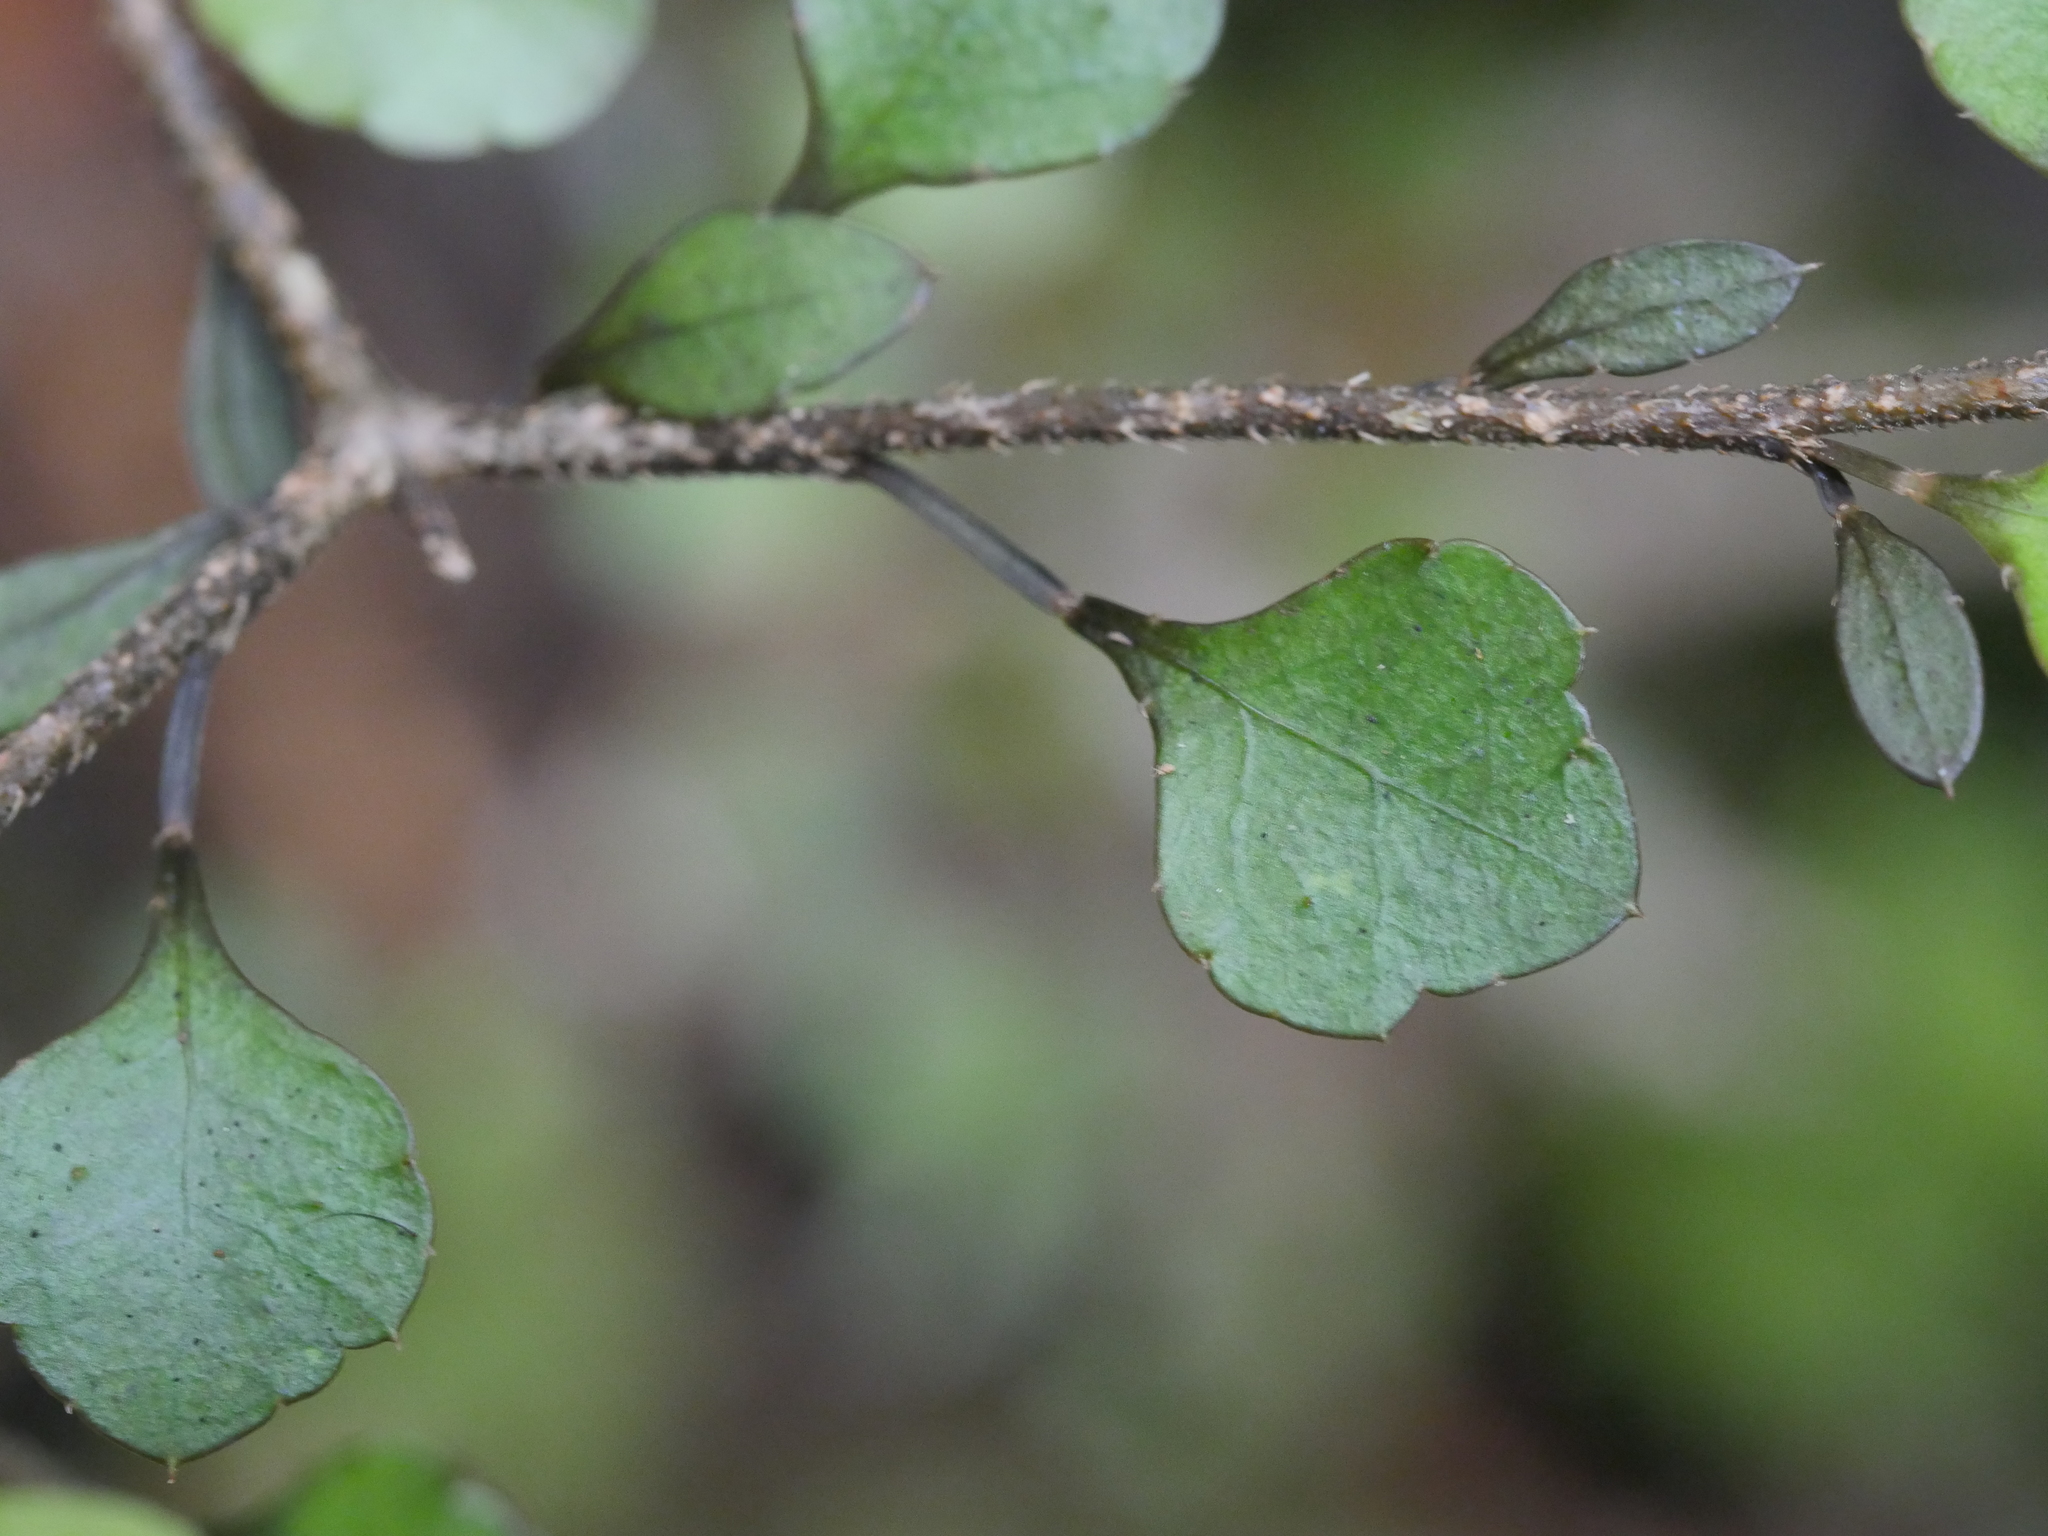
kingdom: Plantae
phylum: Tracheophyta
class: Magnoliopsida
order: Apiales
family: Araliaceae
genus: Raukaua
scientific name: Raukaua anomalus
